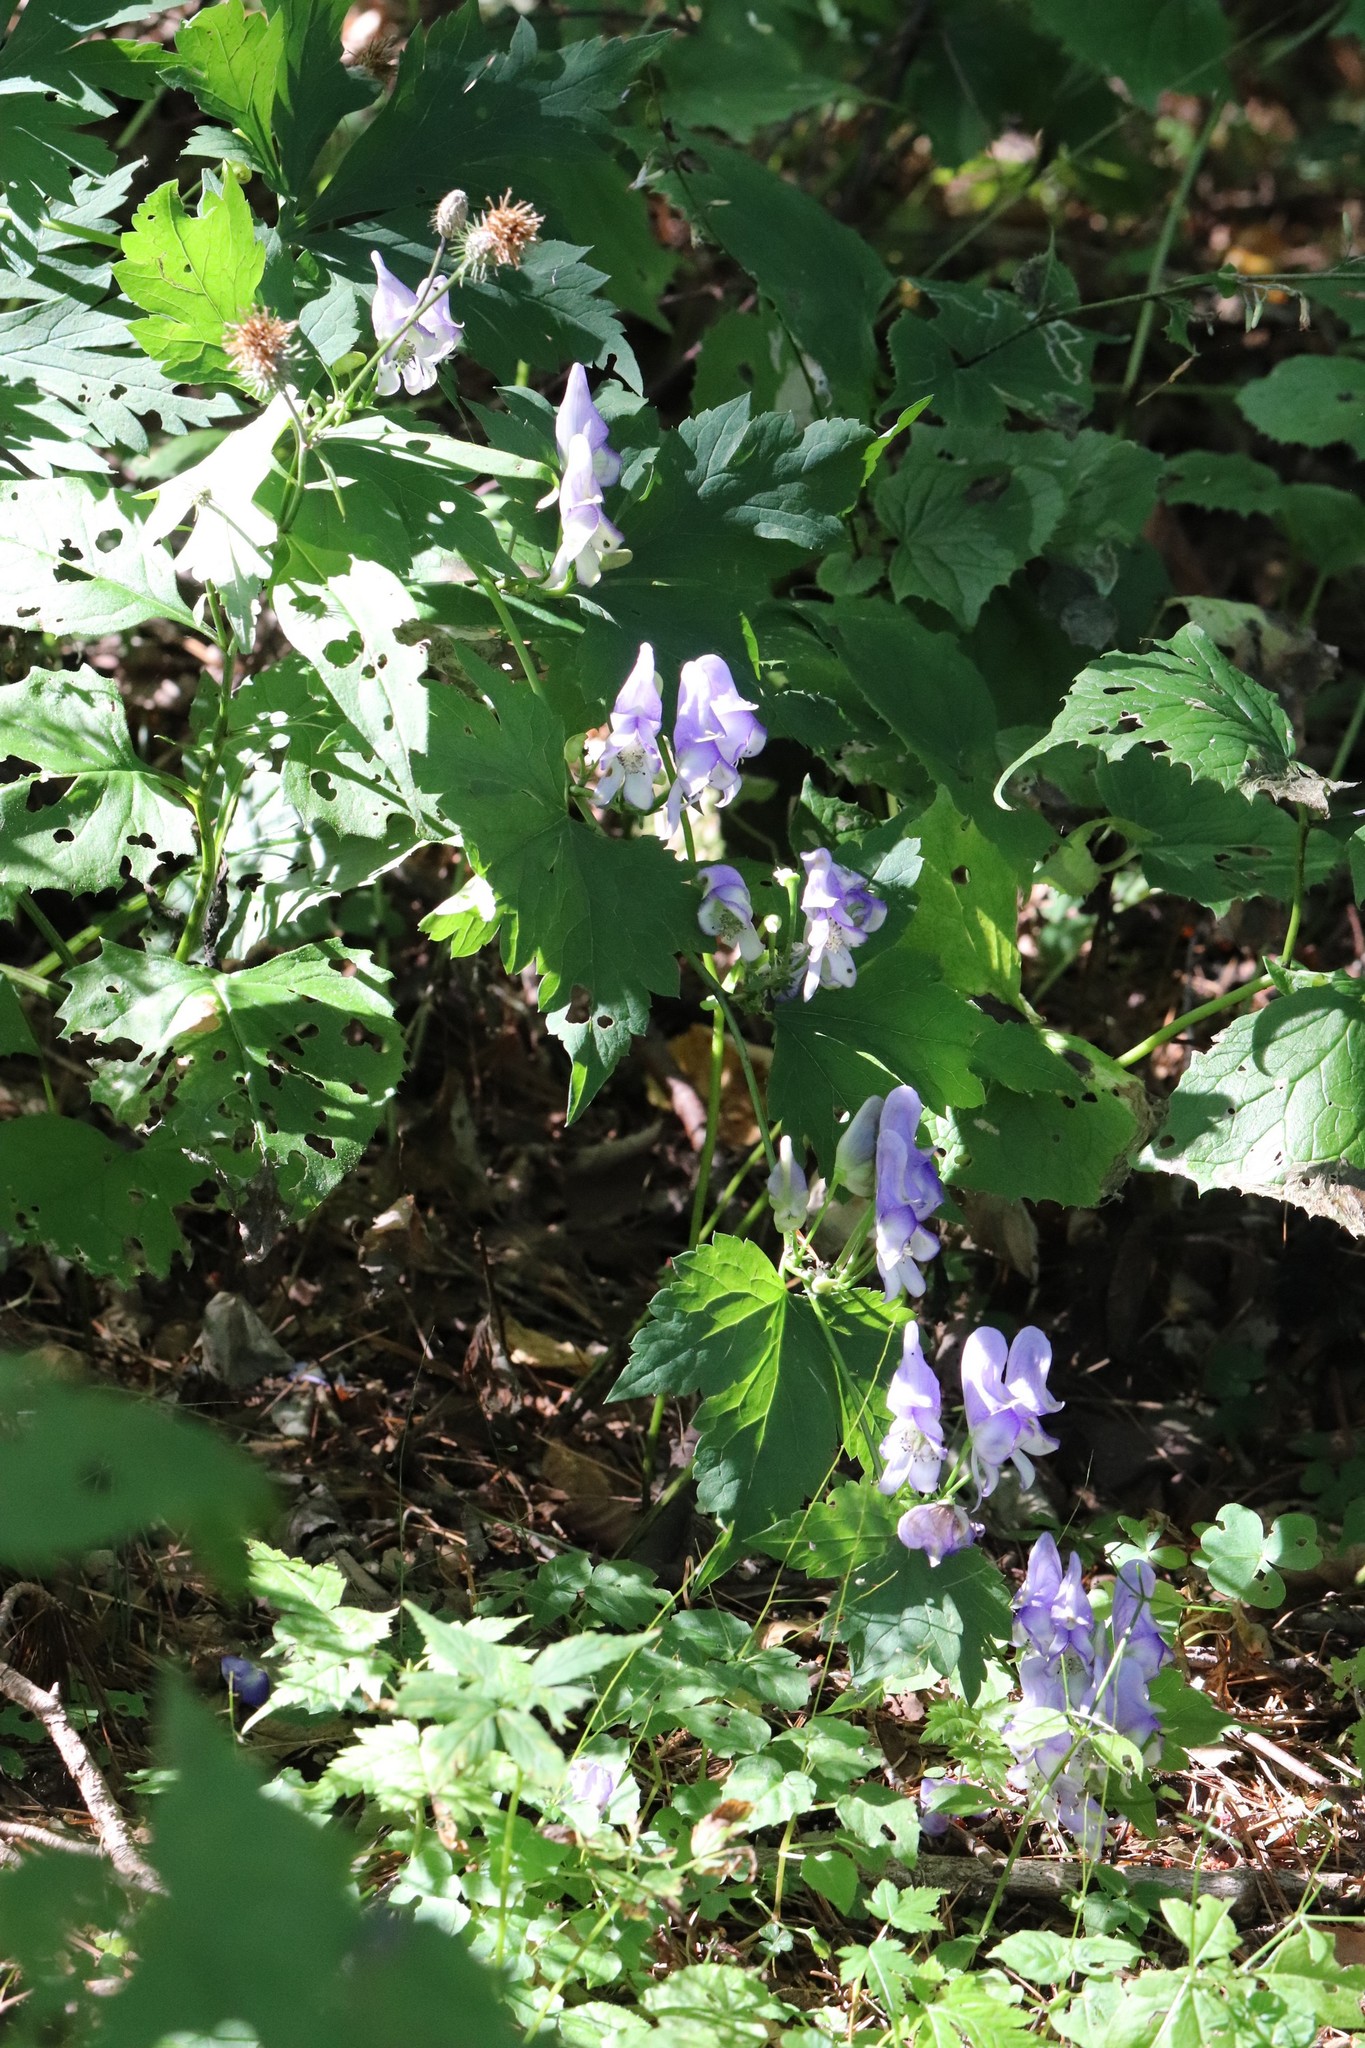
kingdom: Plantae
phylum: Tracheophyta
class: Magnoliopsida
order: Ranunculales
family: Ranunculaceae
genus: Aconitum
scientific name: Aconitum sczukinii
